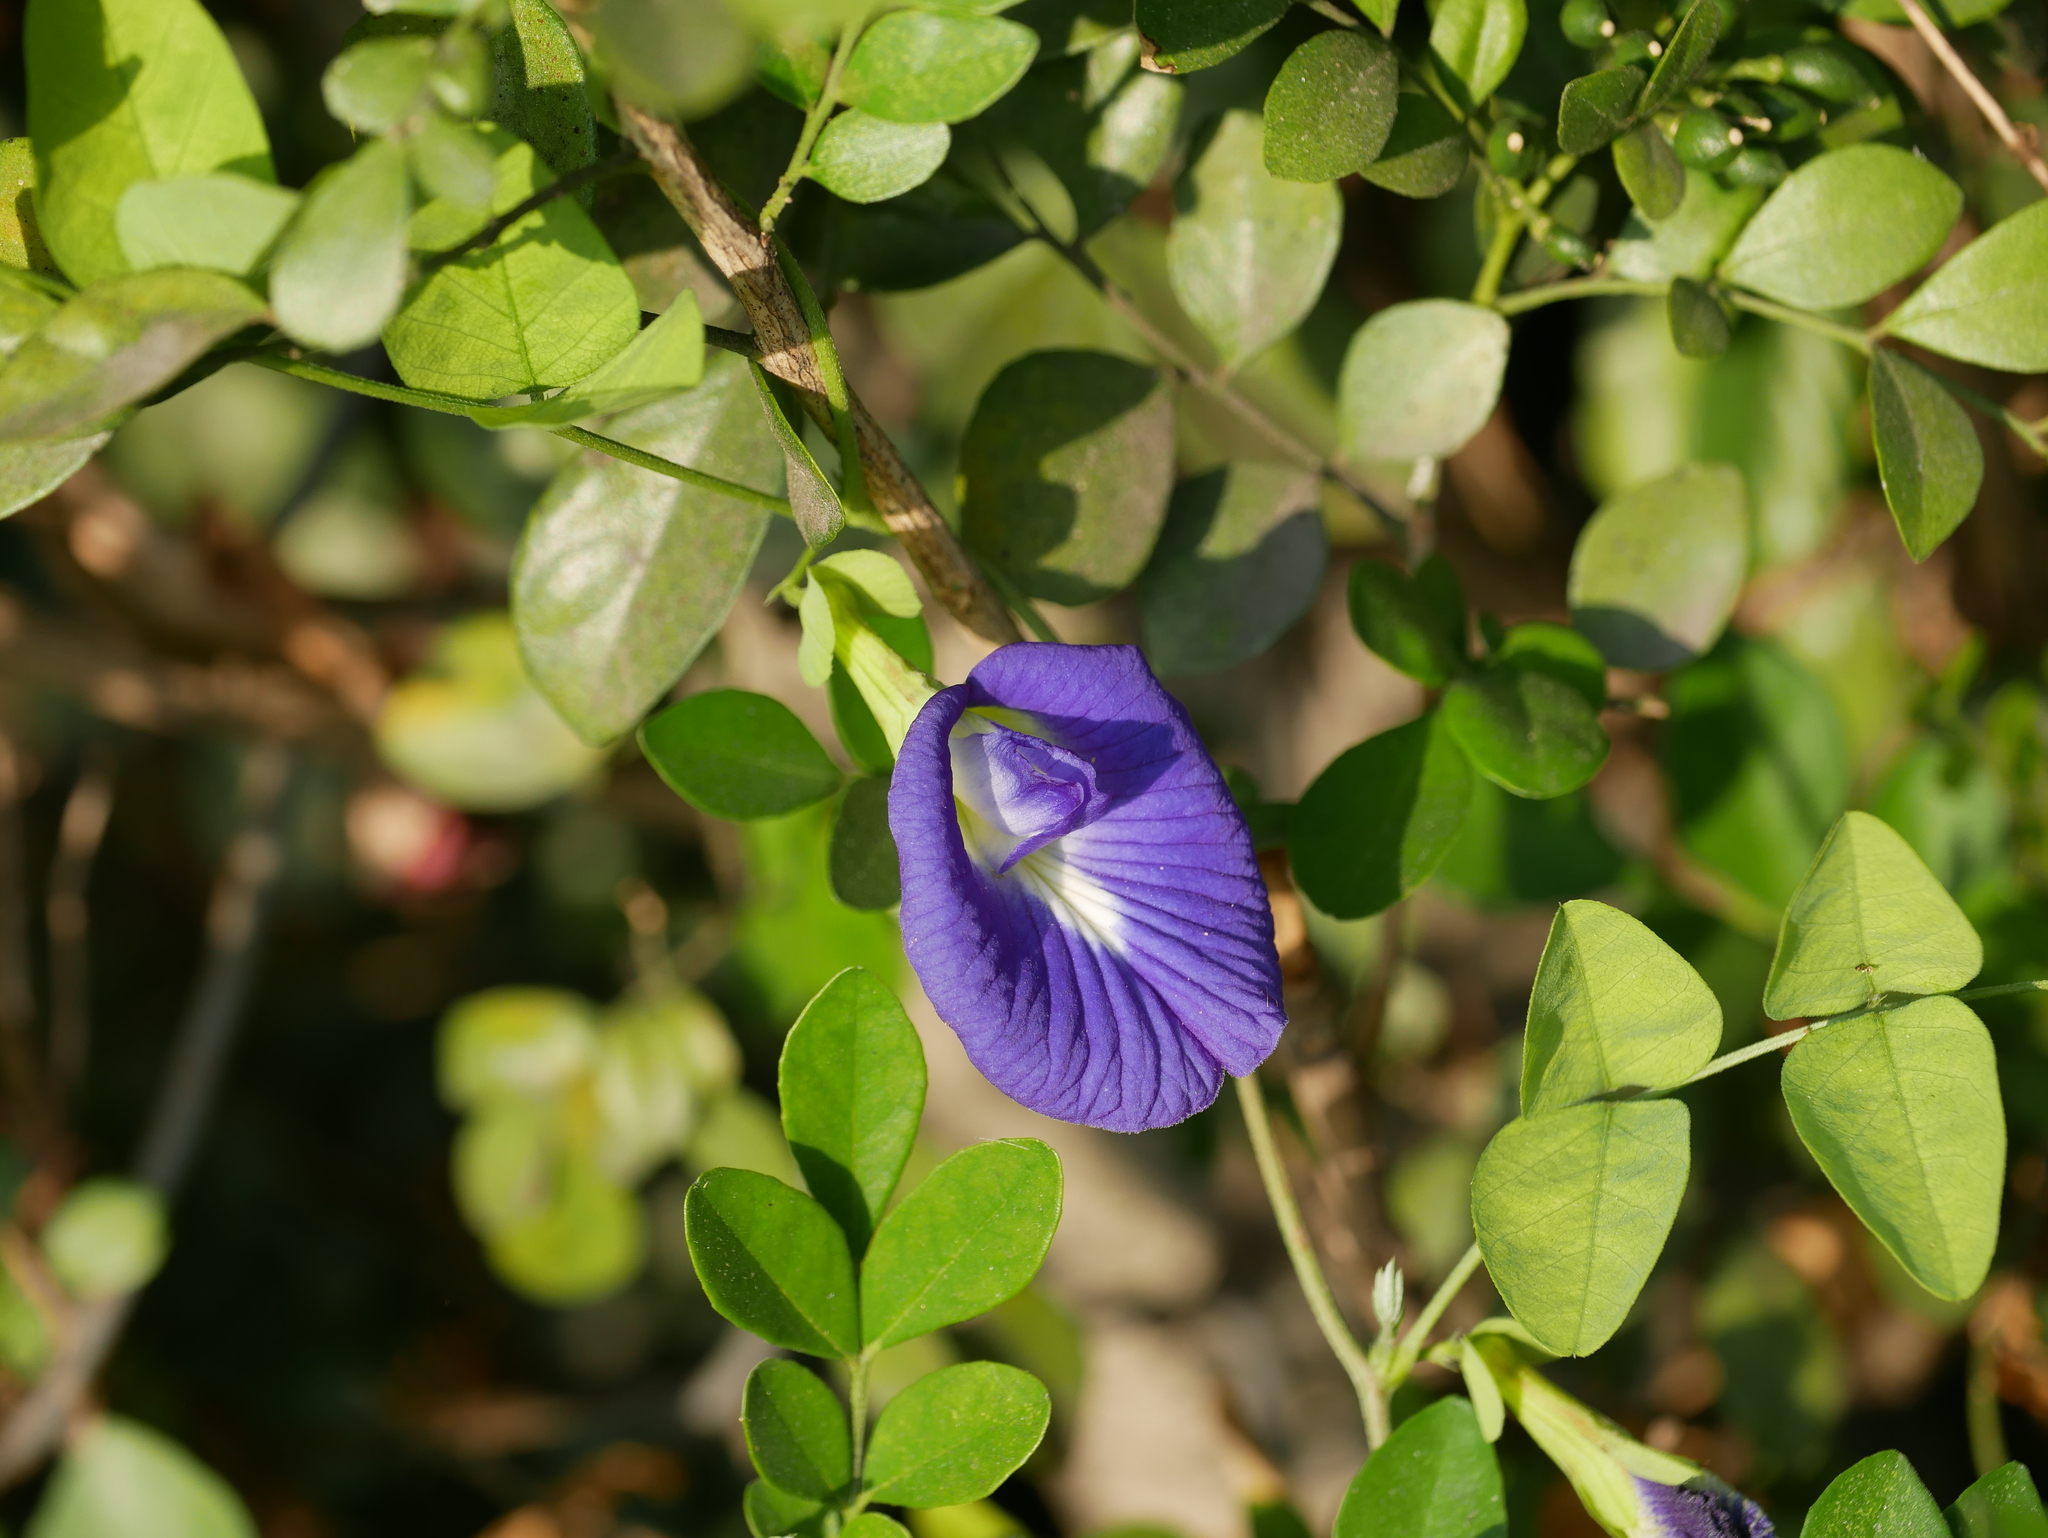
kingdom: Plantae
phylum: Tracheophyta
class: Magnoliopsida
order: Fabales
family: Fabaceae
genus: Clitoria
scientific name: Clitoria ternatea
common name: Asian pigeonwings
